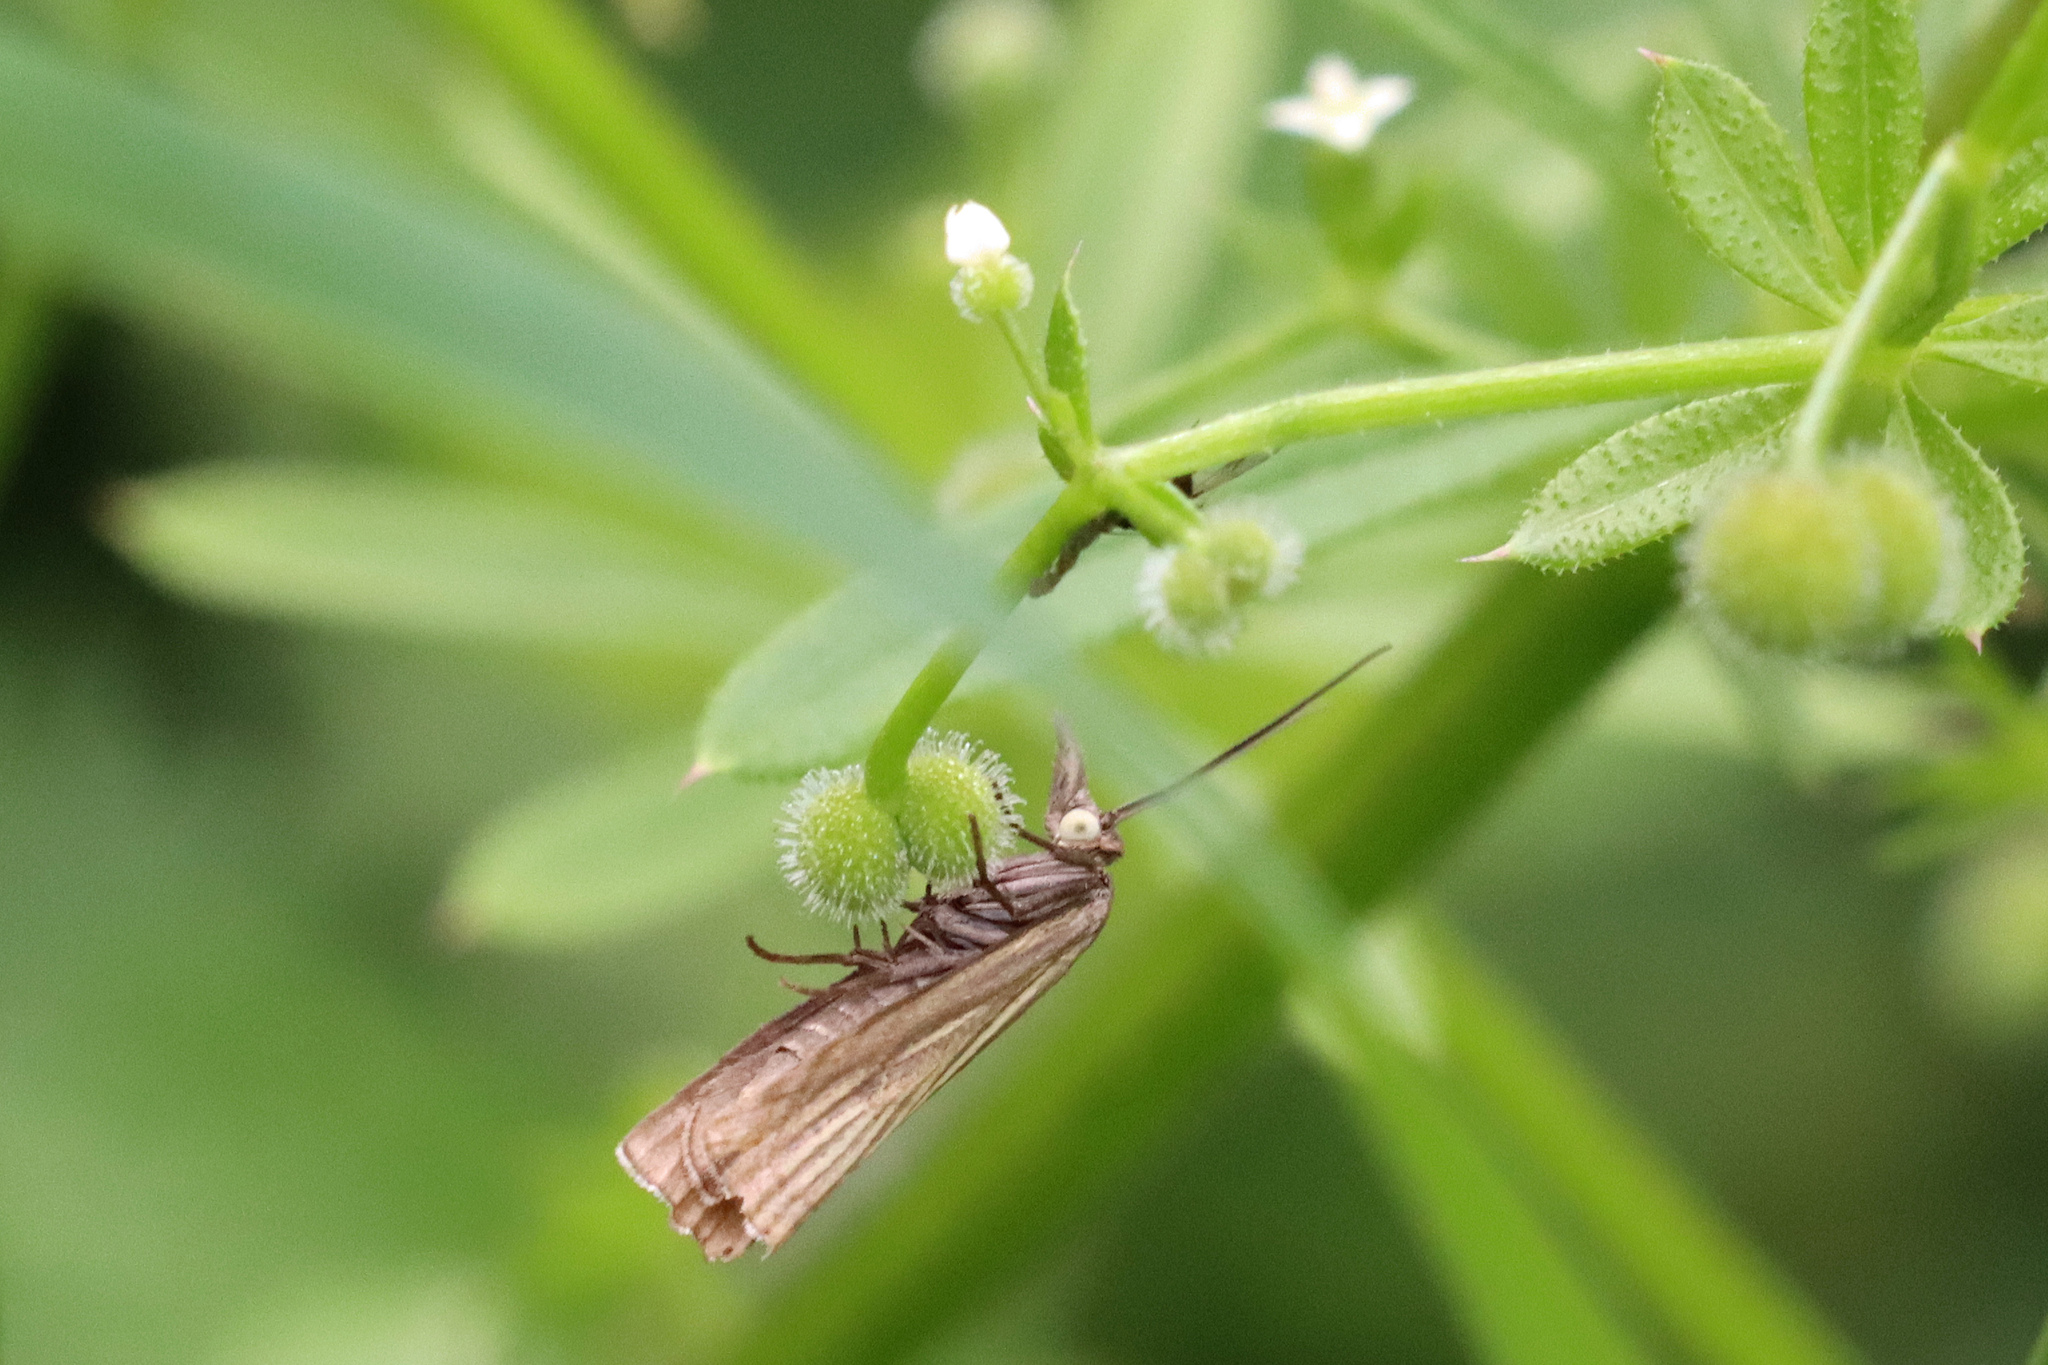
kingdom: Animalia
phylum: Arthropoda
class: Insecta
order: Lepidoptera
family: Crambidae
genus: Chrysoteuchia
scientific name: Chrysoteuchia culmella
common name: Garden grass-veneer
